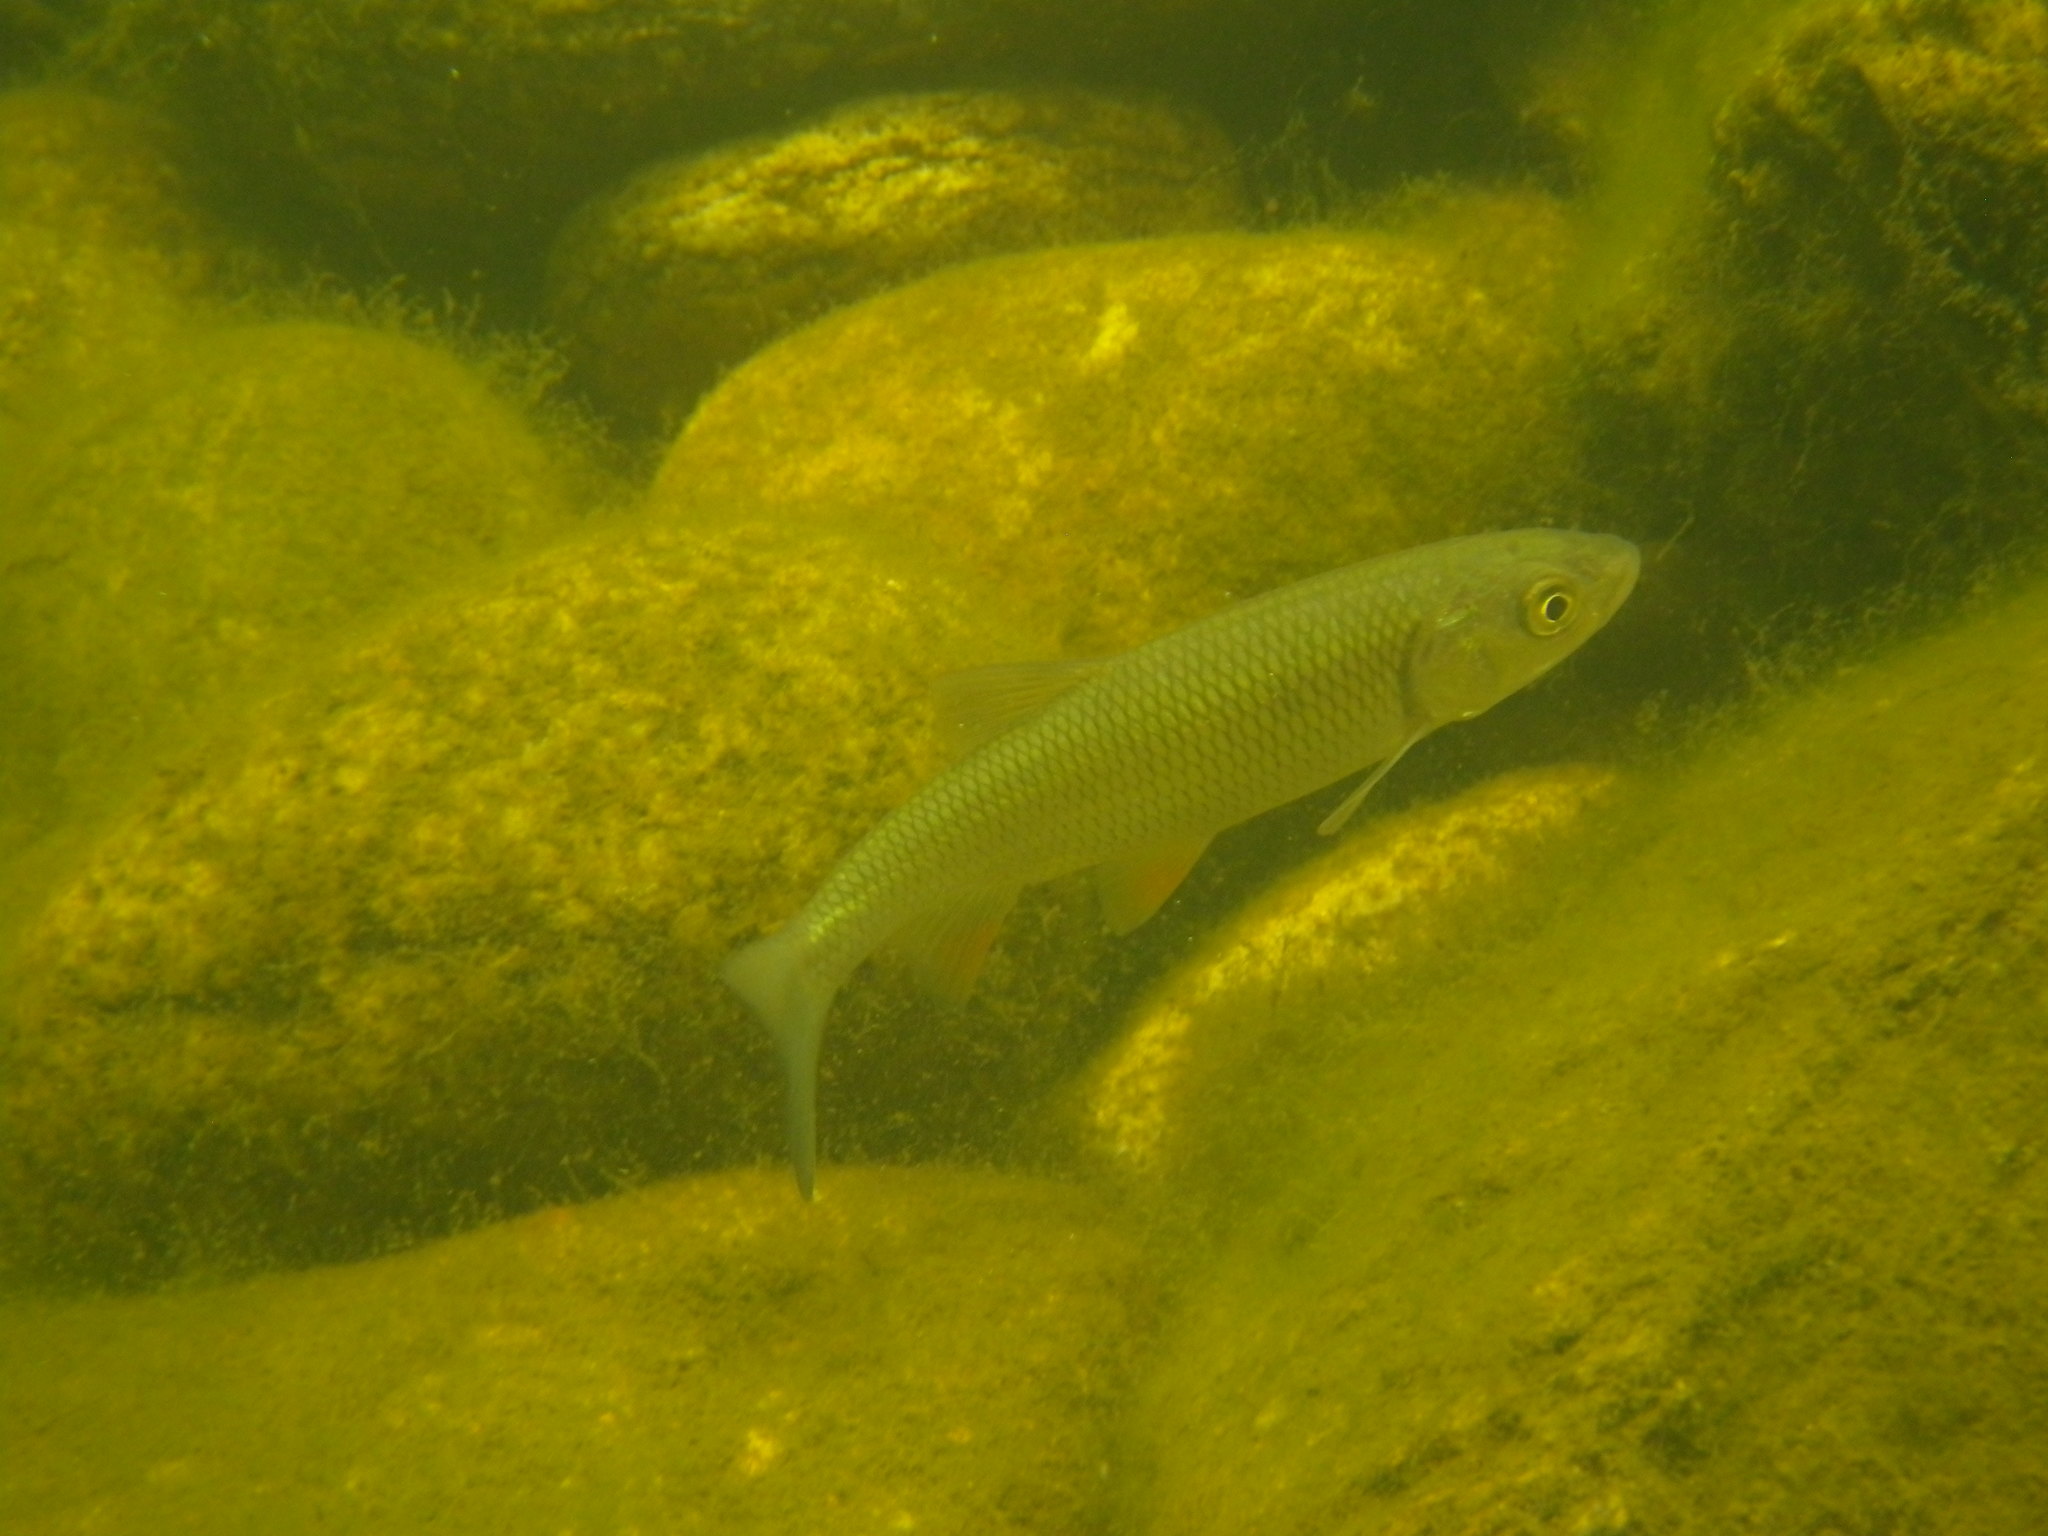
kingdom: Animalia
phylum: Chordata
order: Cypriniformes
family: Cyprinidae
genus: Squalius
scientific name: Squalius cephalus
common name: Chub
